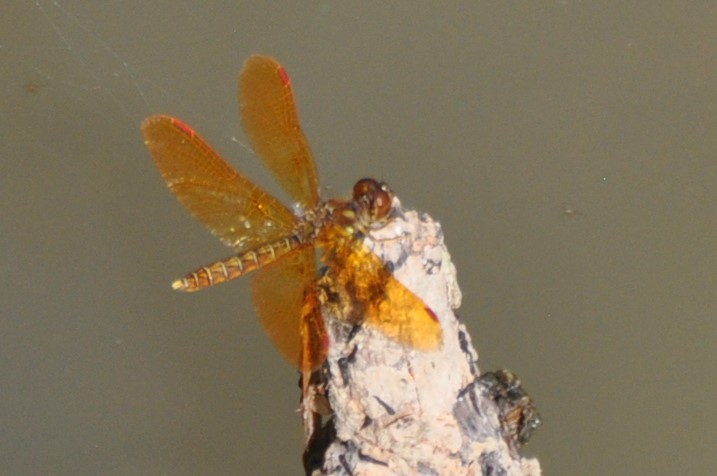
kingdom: Animalia
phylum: Arthropoda
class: Insecta
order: Odonata
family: Libellulidae
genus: Perithemis
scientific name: Perithemis tenera
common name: Eastern amberwing
